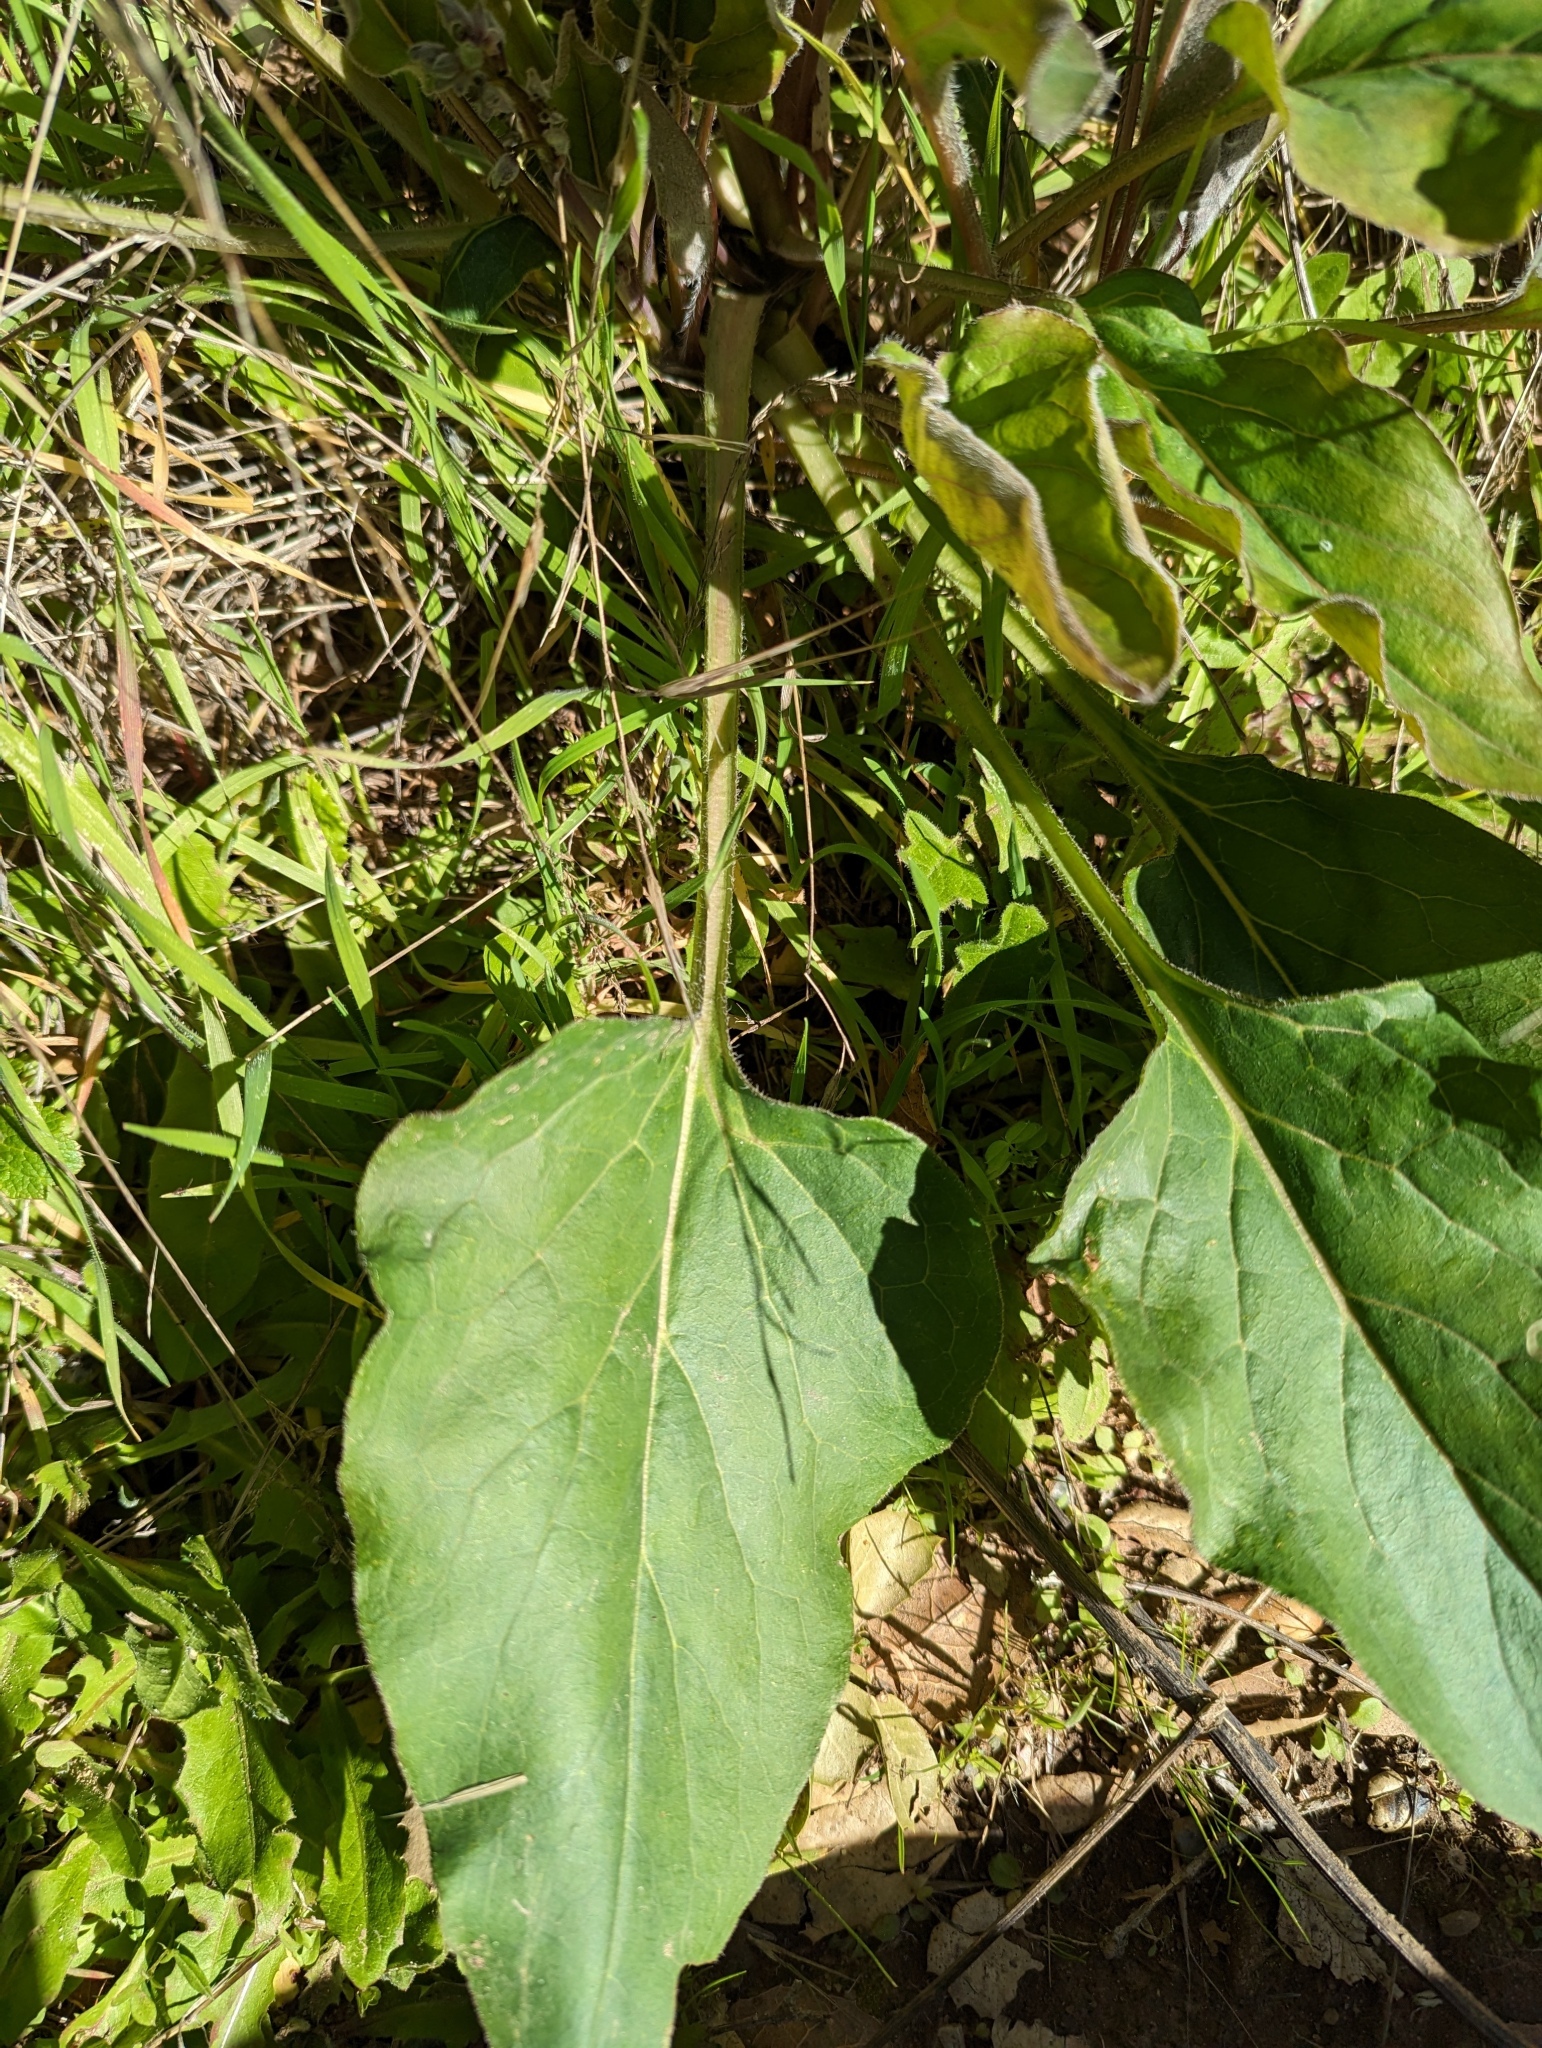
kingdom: Plantae
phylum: Tracheophyta
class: Magnoliopsida
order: Boraginales
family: Boraginaceae
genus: Adelinia
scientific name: Adelinia grande
